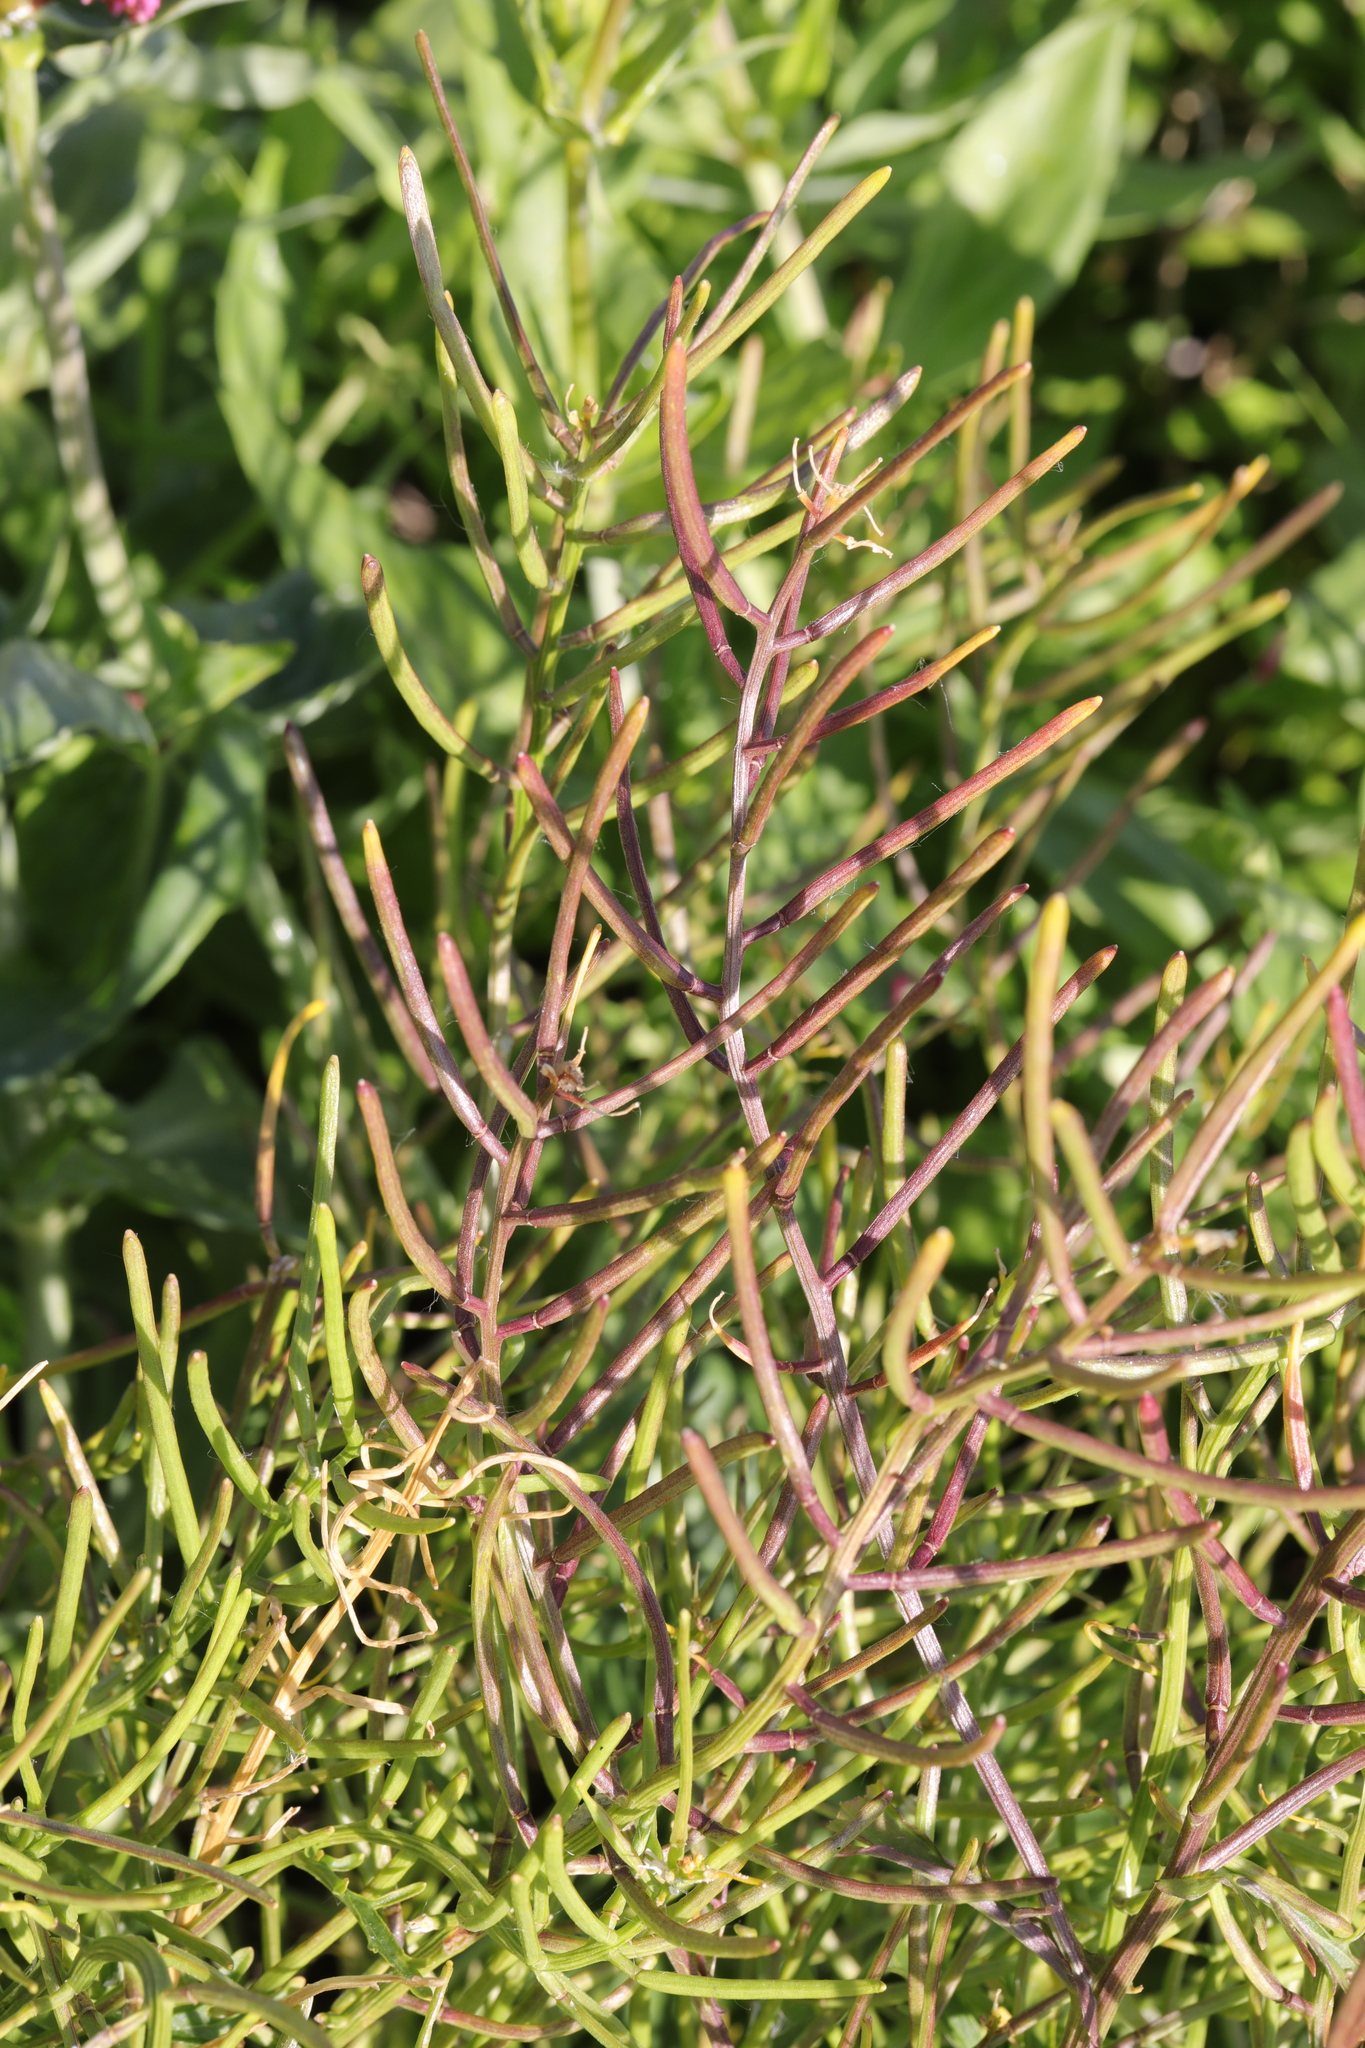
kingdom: Plantae
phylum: Tracheophyta
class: Magnoliopsida
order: Brassicales
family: Brassicaceae
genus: Raphanus
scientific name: Raphanus raphanistrum
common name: Wild radish
